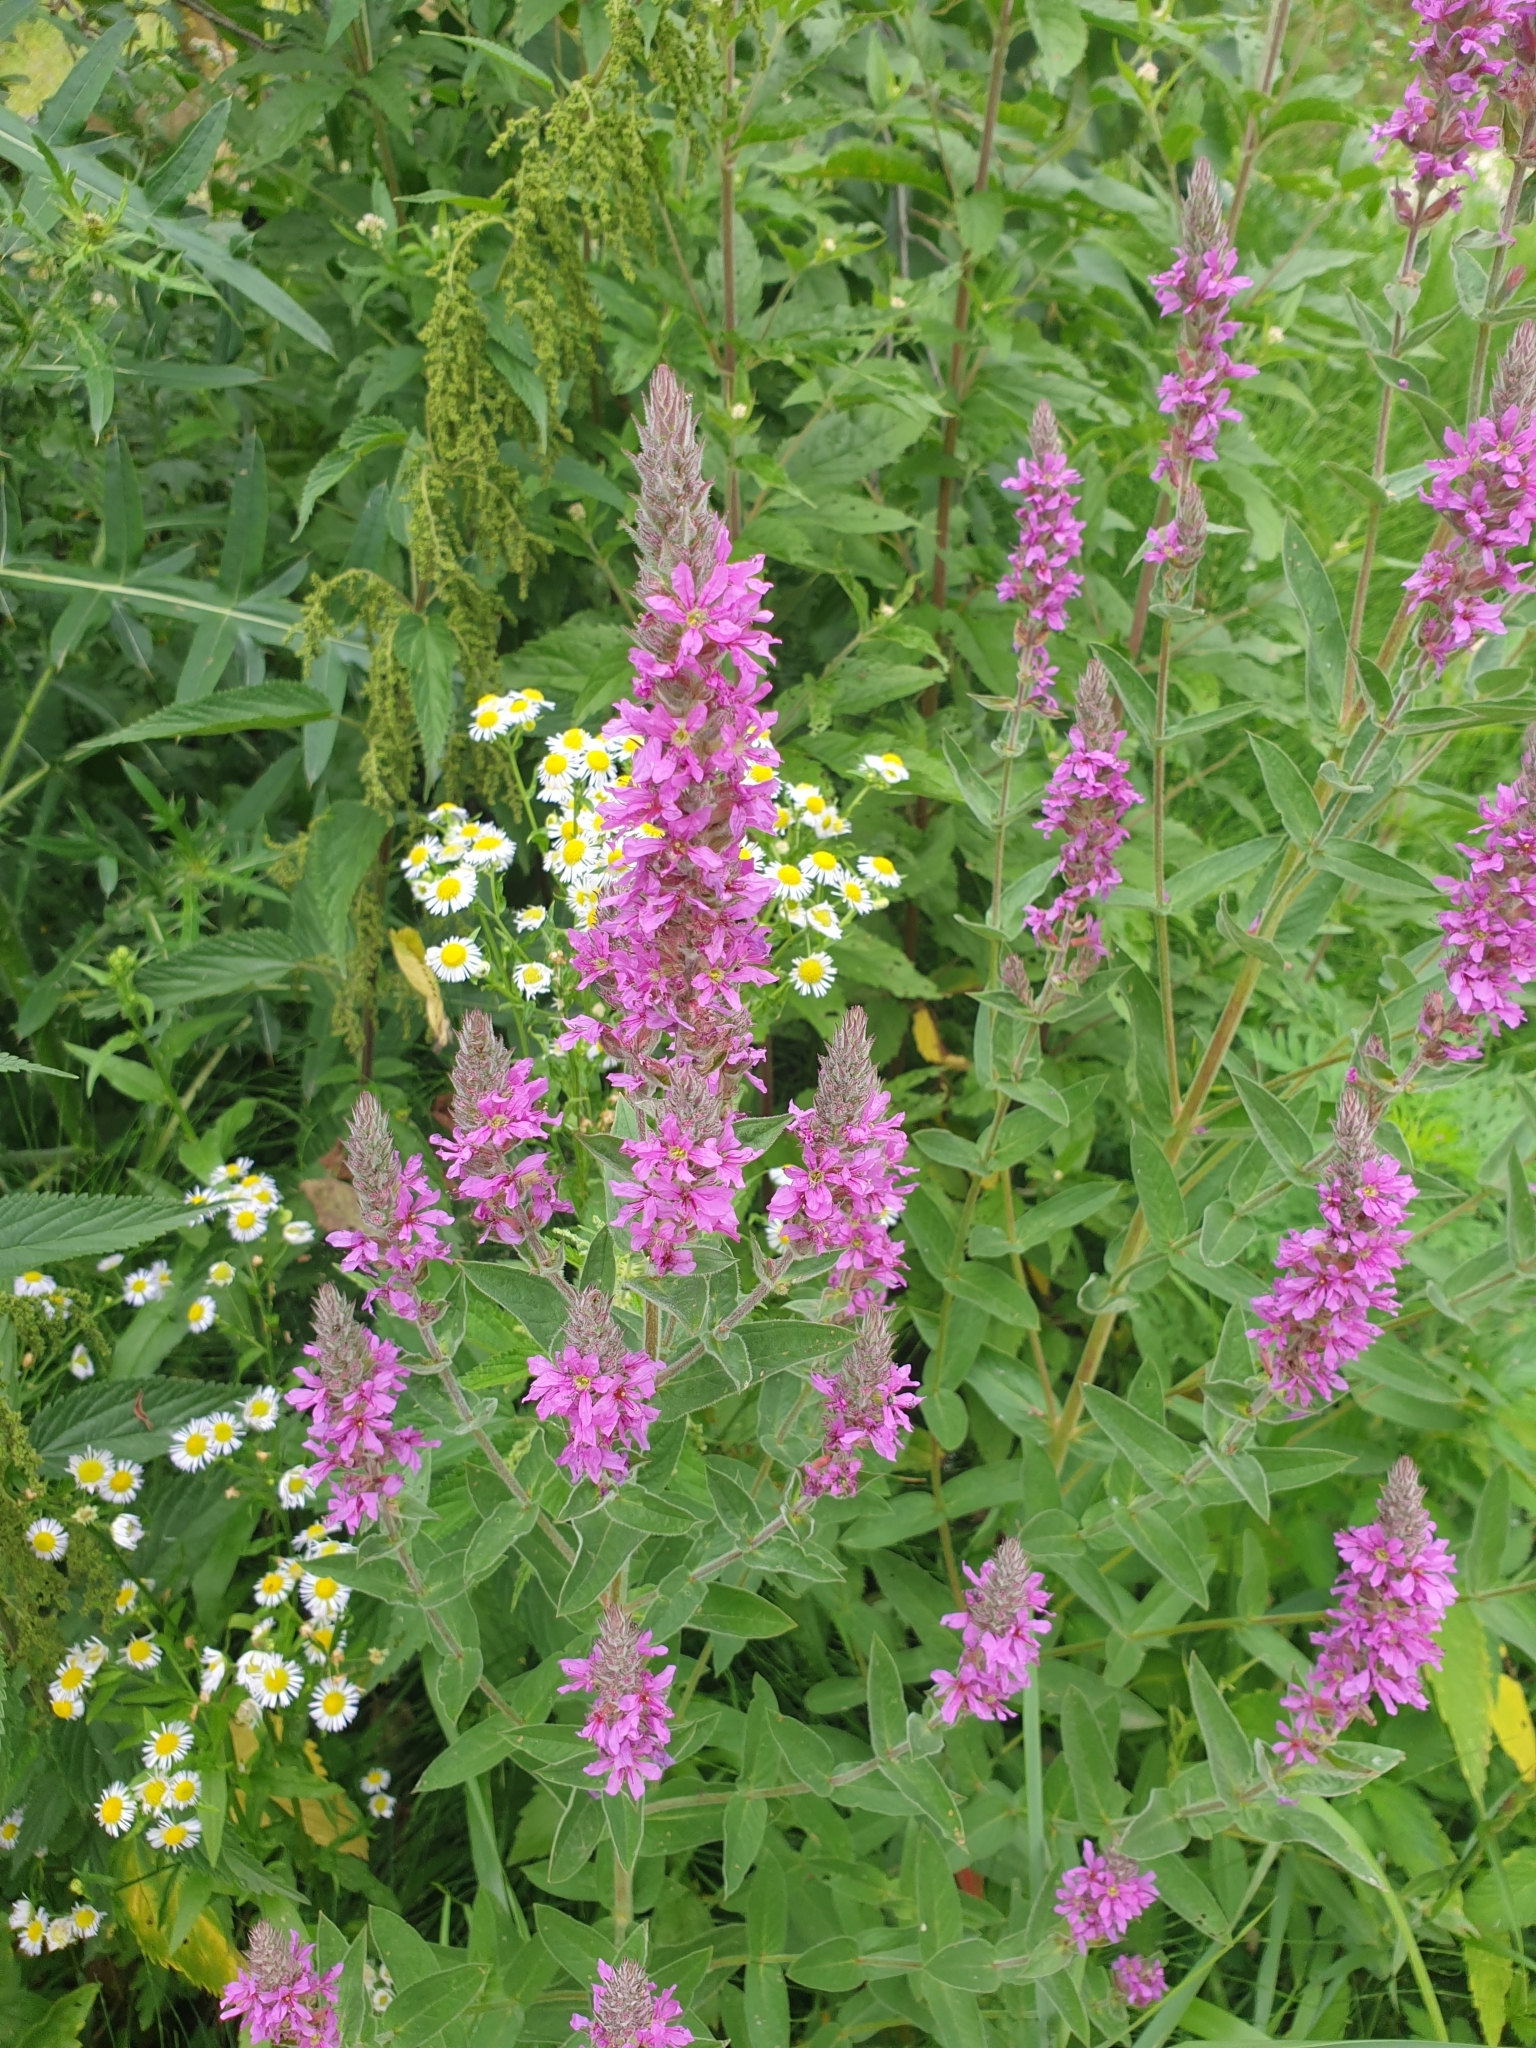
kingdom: Plantae
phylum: Tracheophyta
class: Magnoliopsida
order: Myrtales
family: Lythraceae
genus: Lythrum
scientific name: Lythrum salicaria
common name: Purple loosestrife
